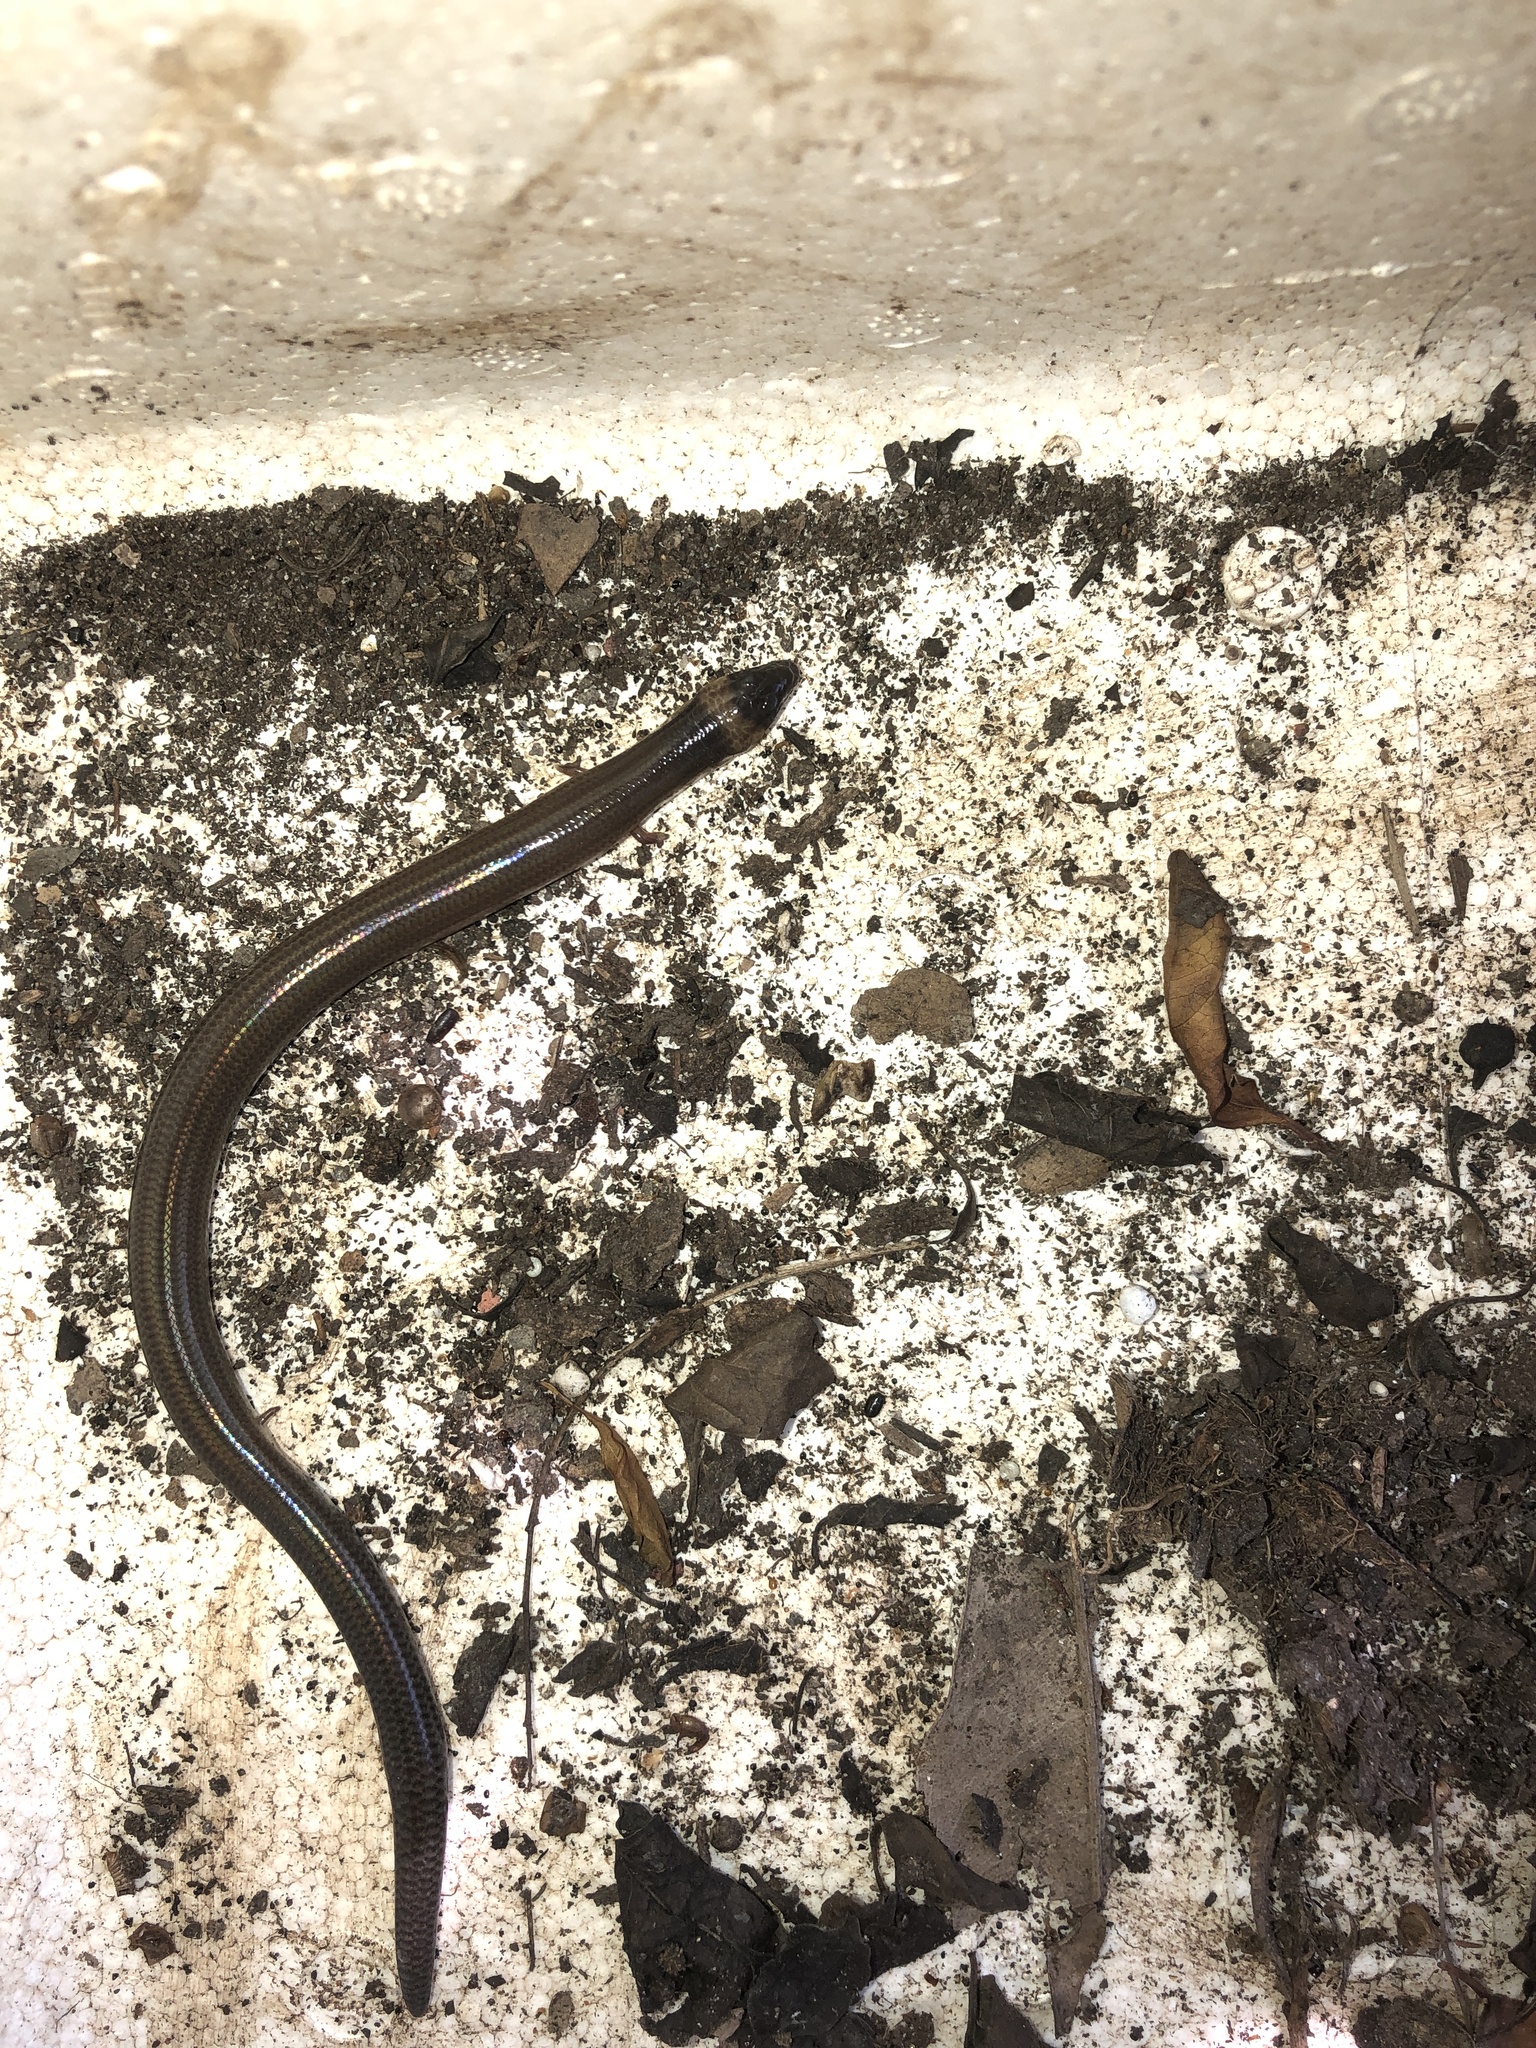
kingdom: Animalia
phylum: Chordata
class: Squamata
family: Scincidae
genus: Anomalopus
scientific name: Anomalopus verreauxii
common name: Three-clawed worm-skink
